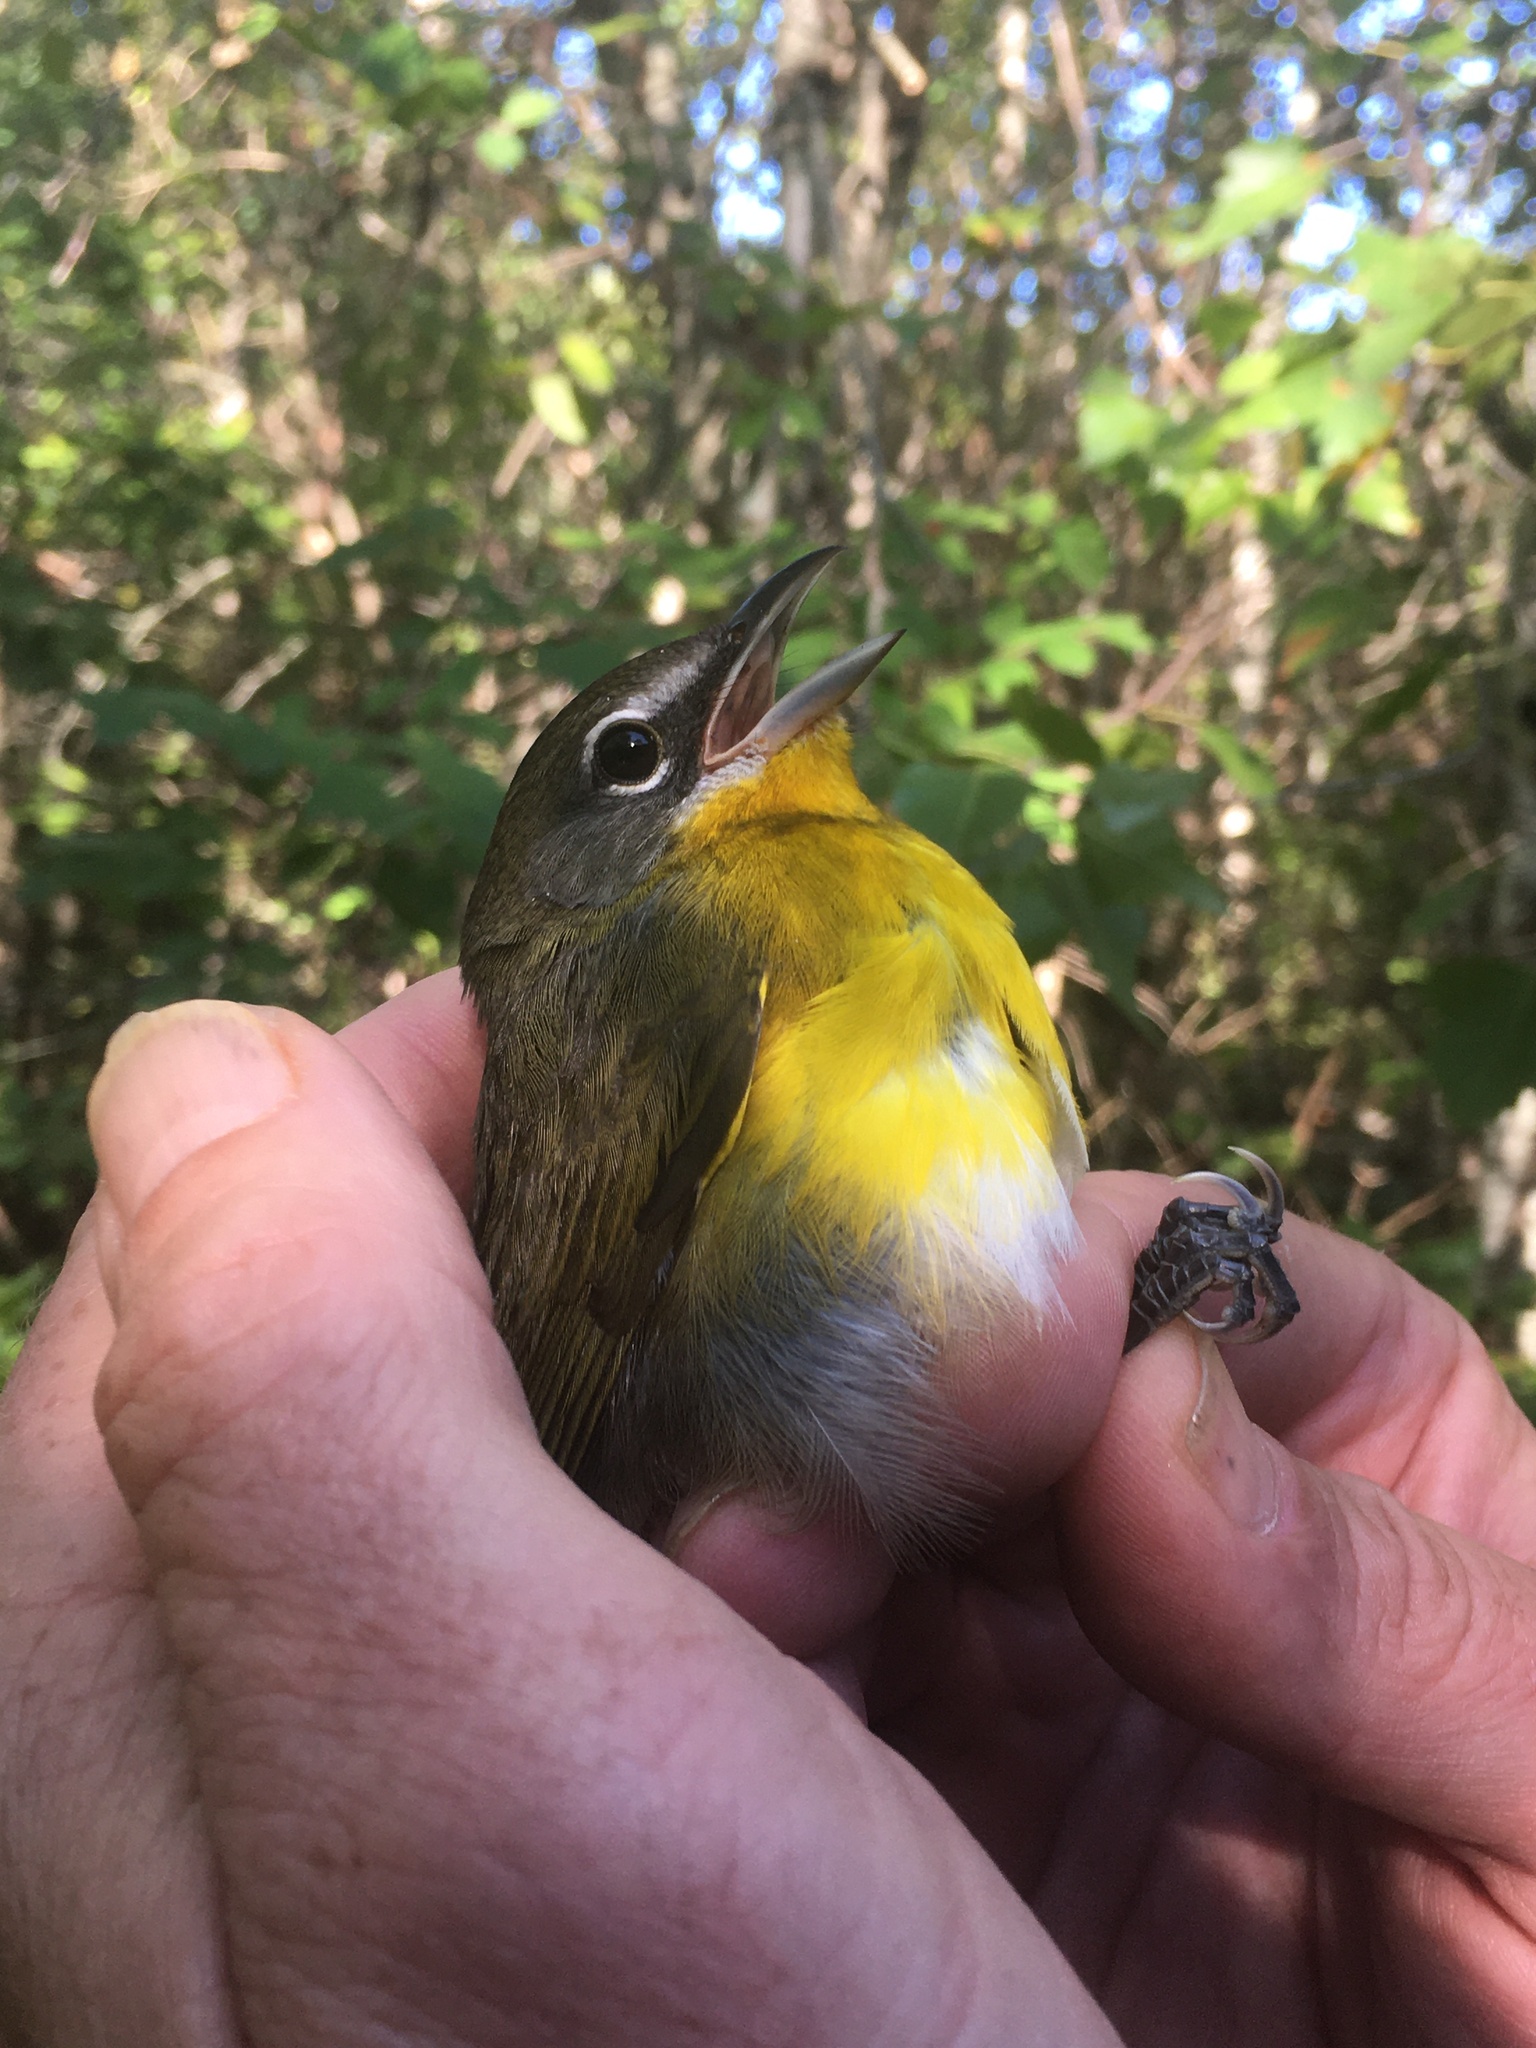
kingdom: Animalia
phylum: Chordata
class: Aves
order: Passeriformes
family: Parulidae
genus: Icteria
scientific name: Icteria virens
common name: Yellow-breasted chat
